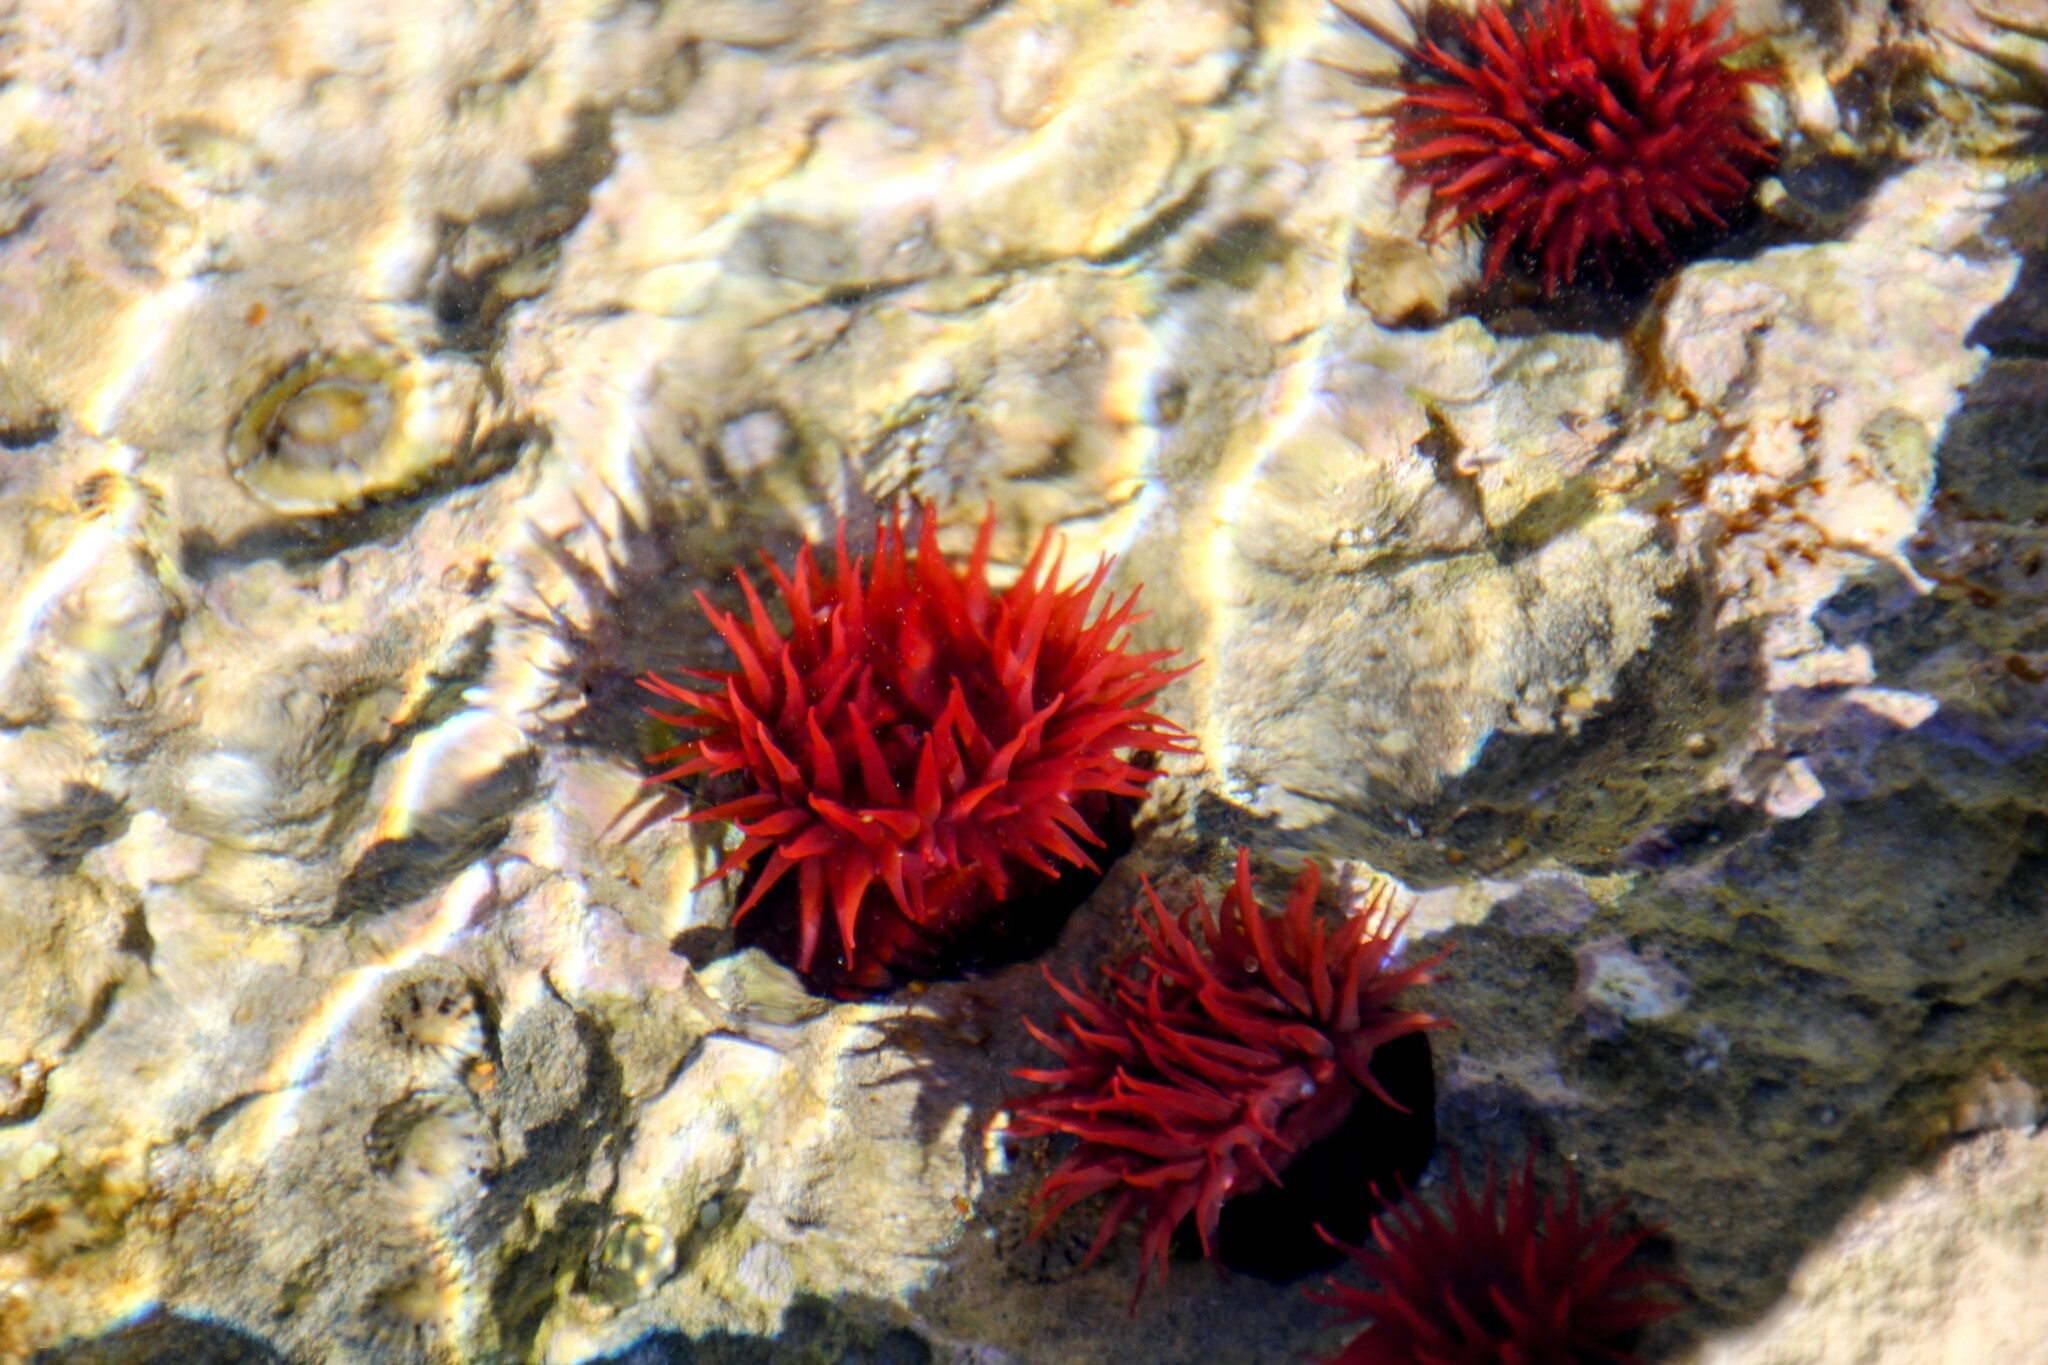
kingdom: Animalia
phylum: Cnidaria
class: Anthozoa
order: Actiniaria
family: Actiniidae
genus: Actinia
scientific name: Actinia tenebrosa
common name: Waratah anemone
